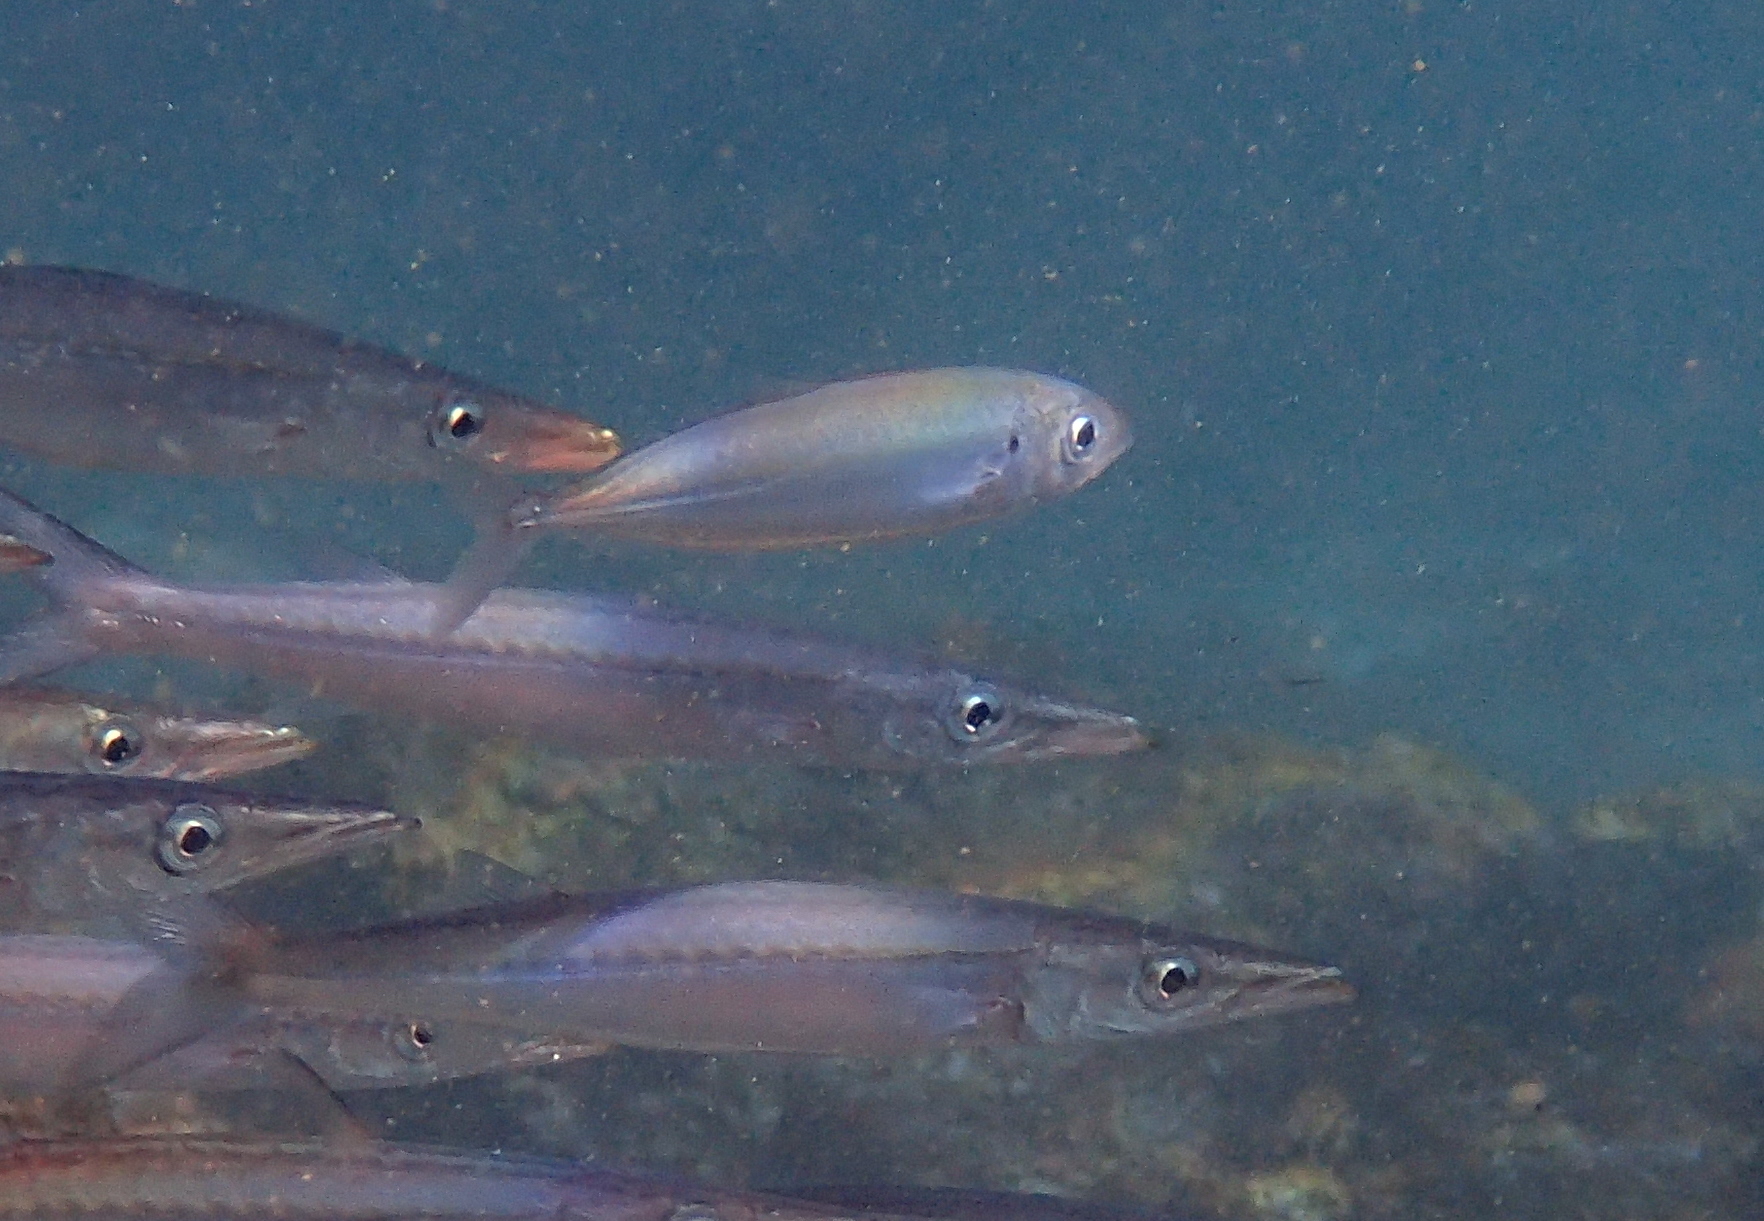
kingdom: Animalia
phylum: Chordata
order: Perciformes
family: Carangidae
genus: Caranx
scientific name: Caranx caballus
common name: Green jack
